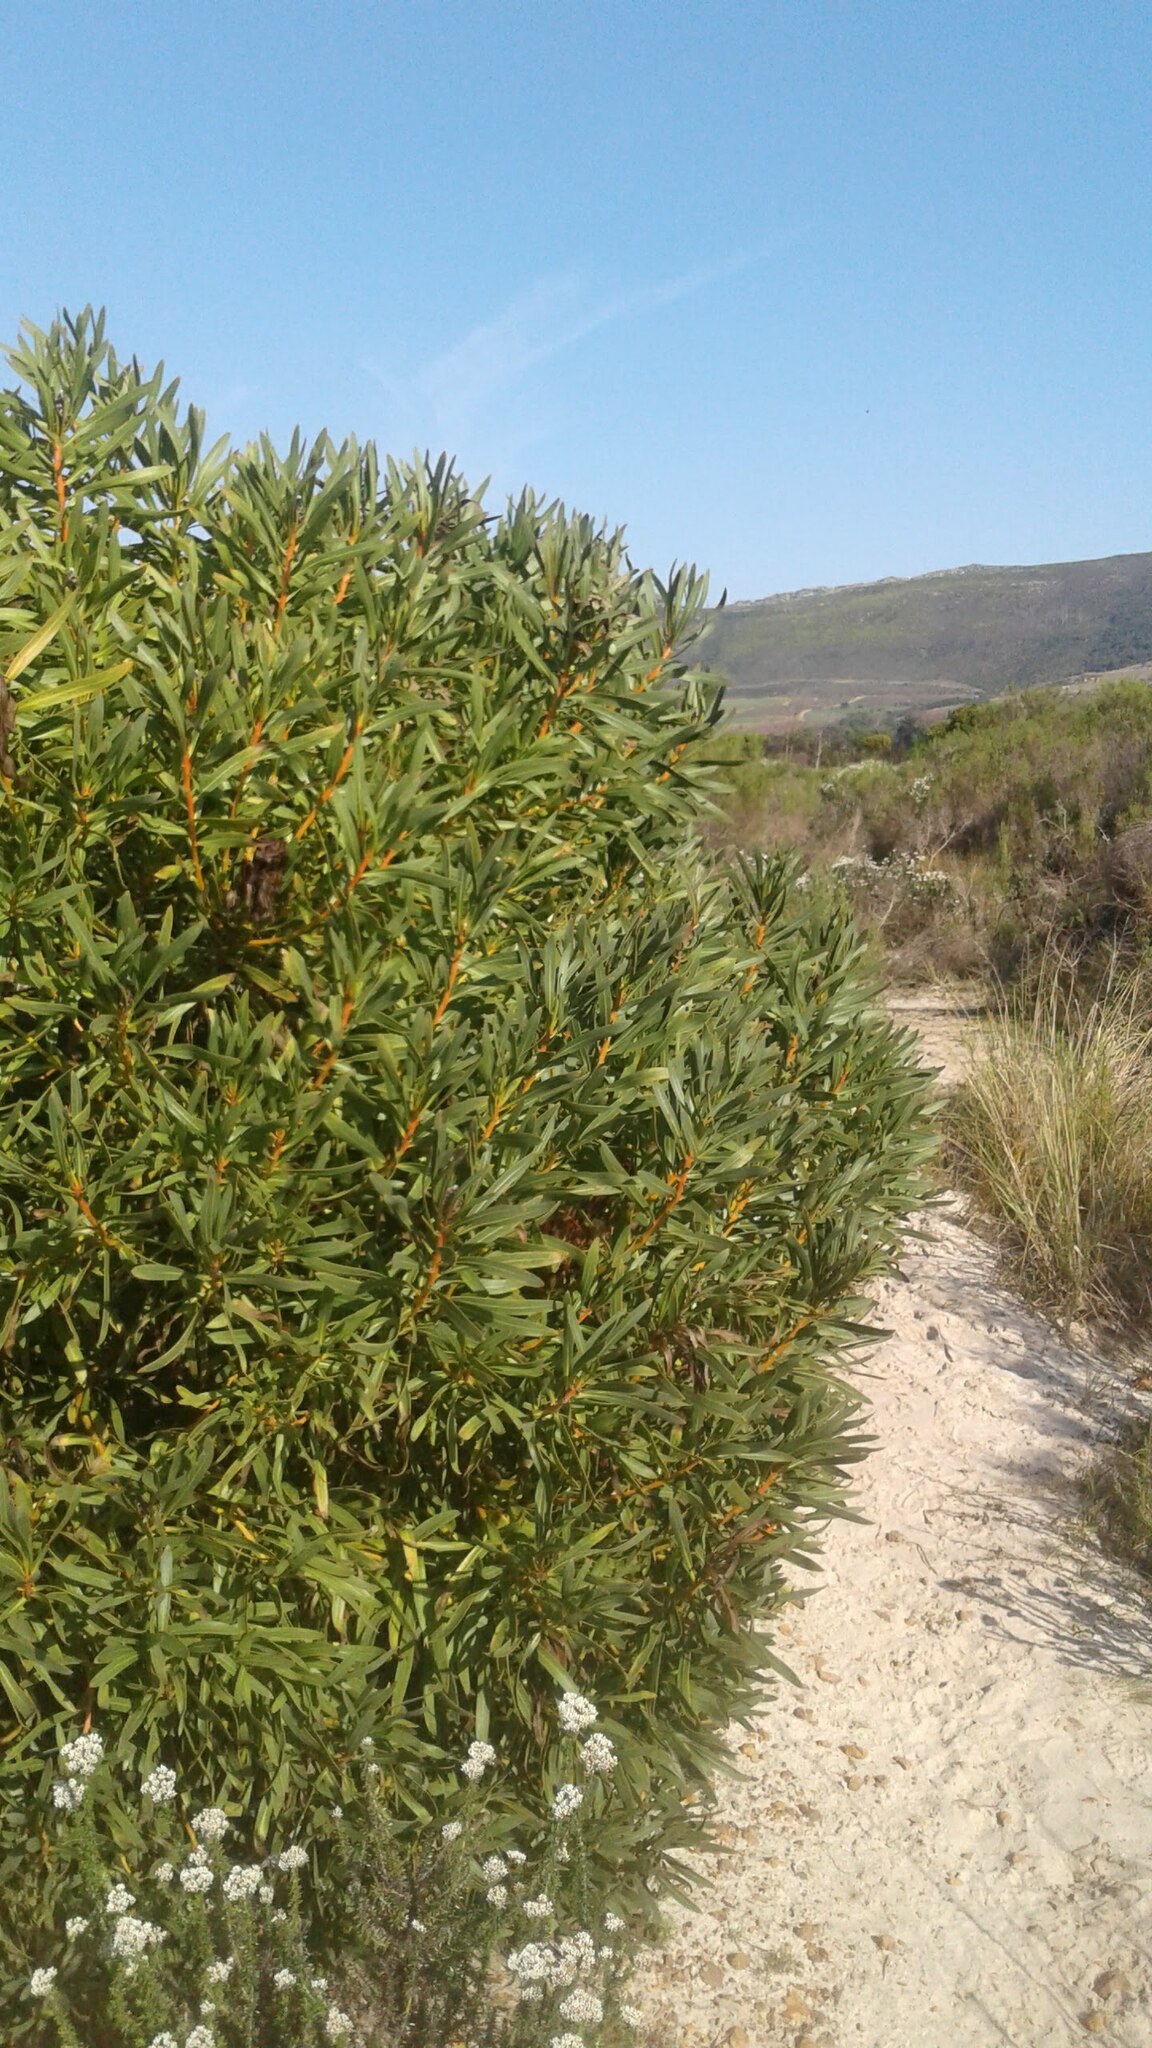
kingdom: Plantae
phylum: Tracheophyta
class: Magnoliopsida
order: Proteales
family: Proteaceae
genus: Protea
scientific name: Protea lepidocarpodendron
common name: Black-bearded protea
